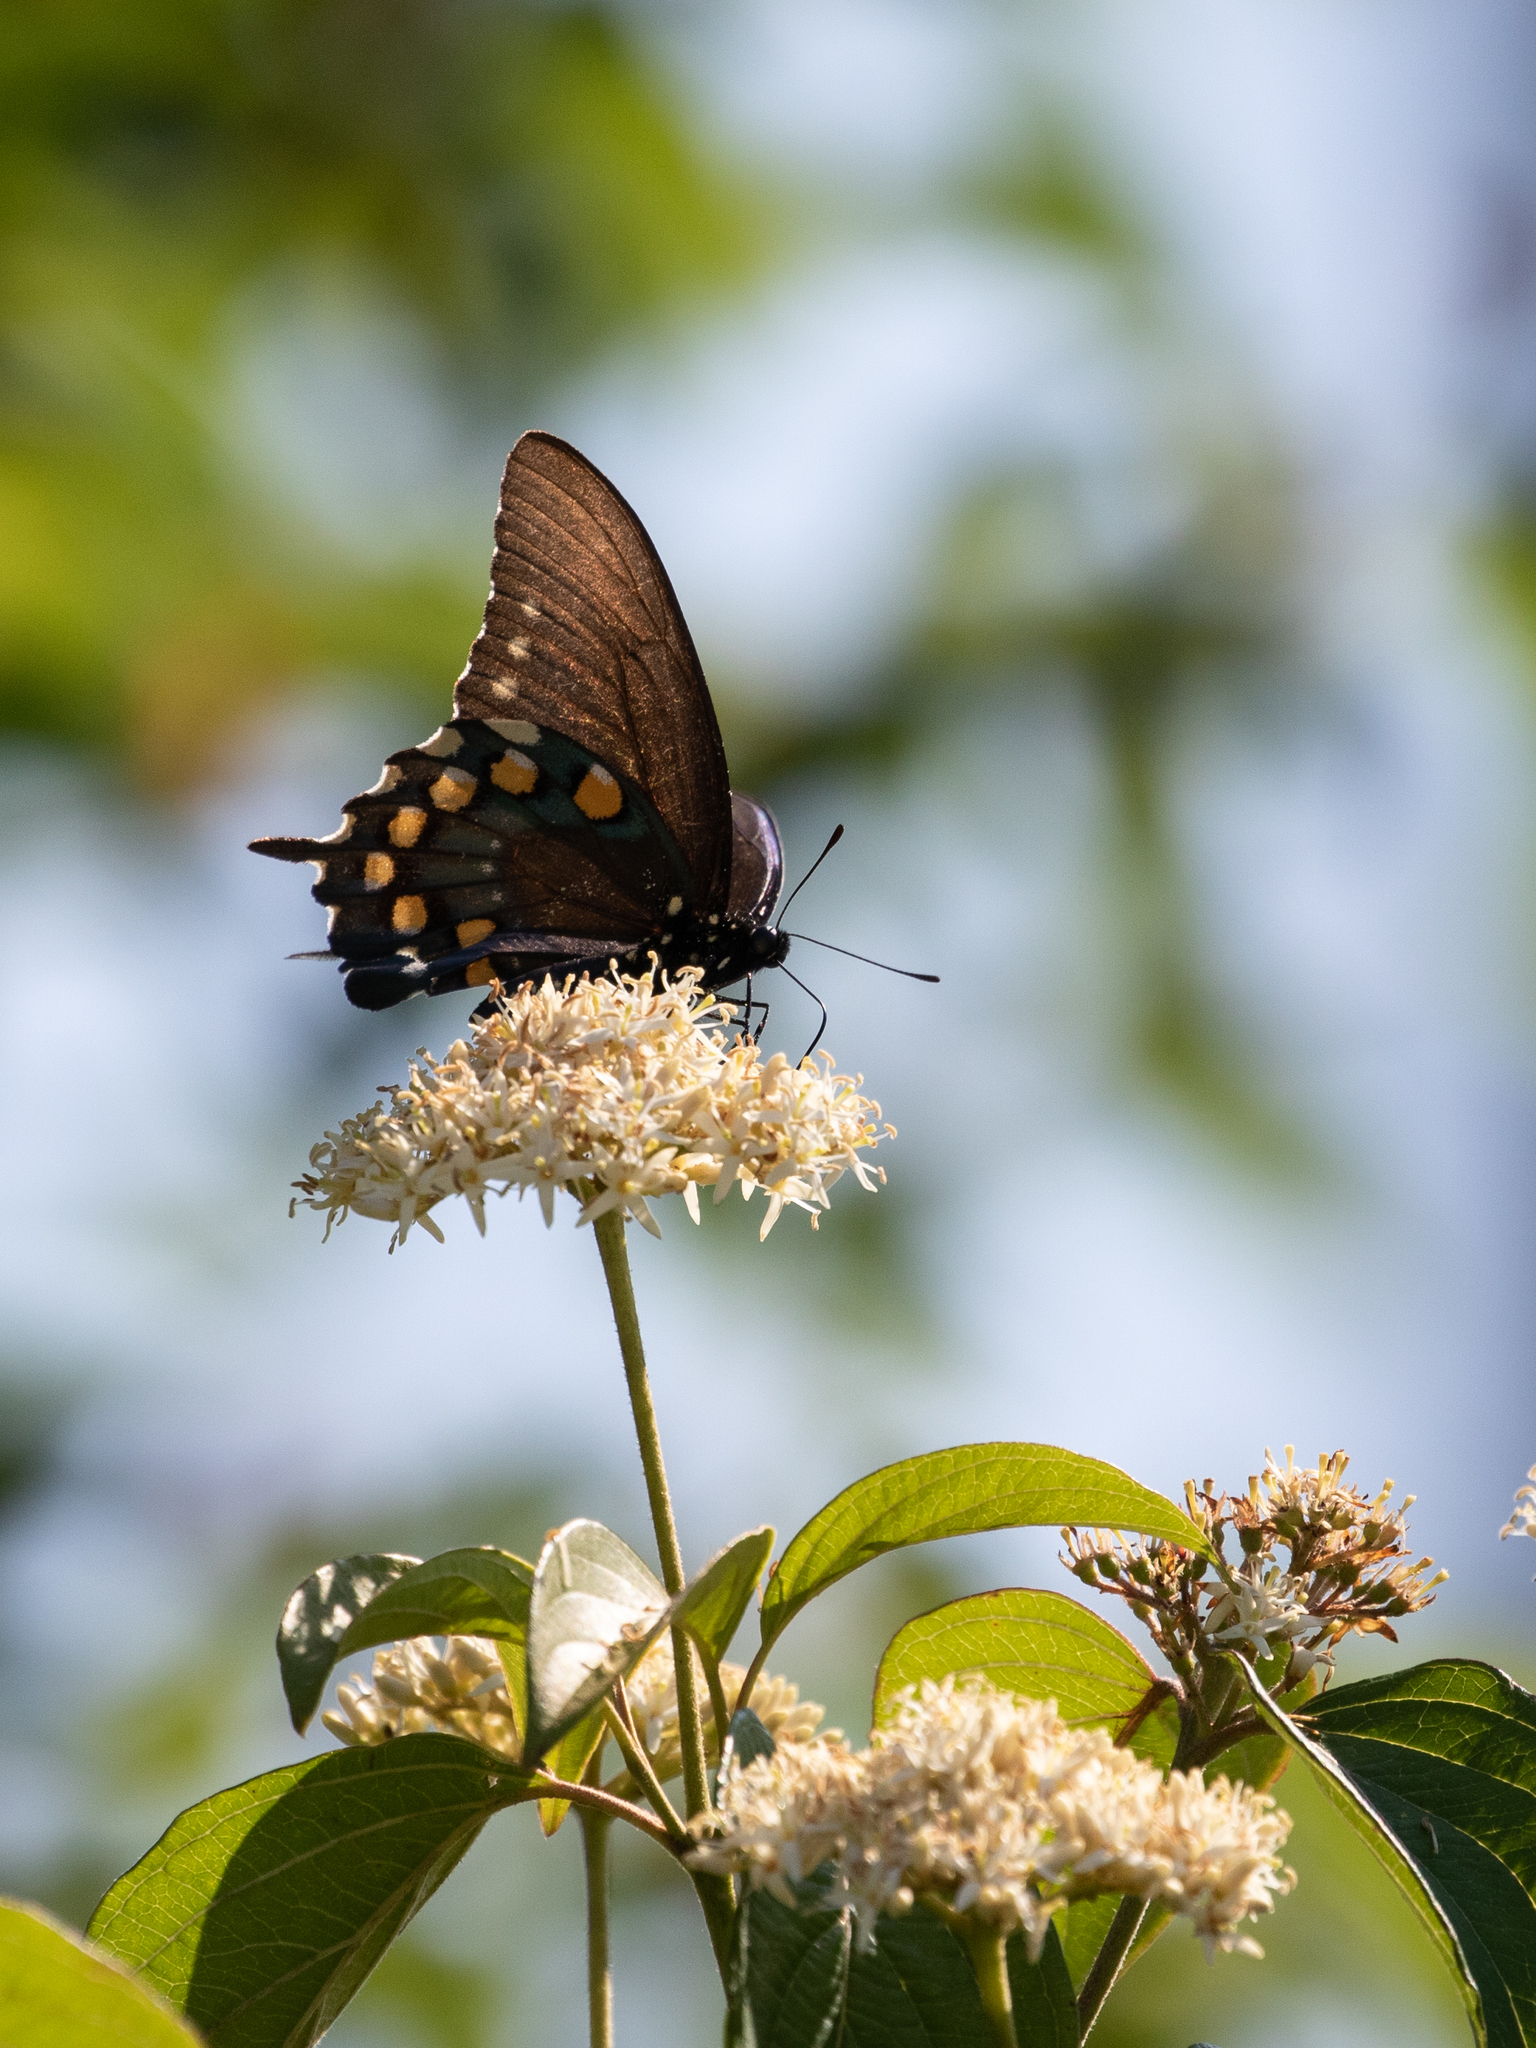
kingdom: Animalia
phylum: Arthropoda
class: Insecta
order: Lepidoptera
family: Papilionidae
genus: Battus
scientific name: Battus philenor
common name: Pipevine swallowtail
